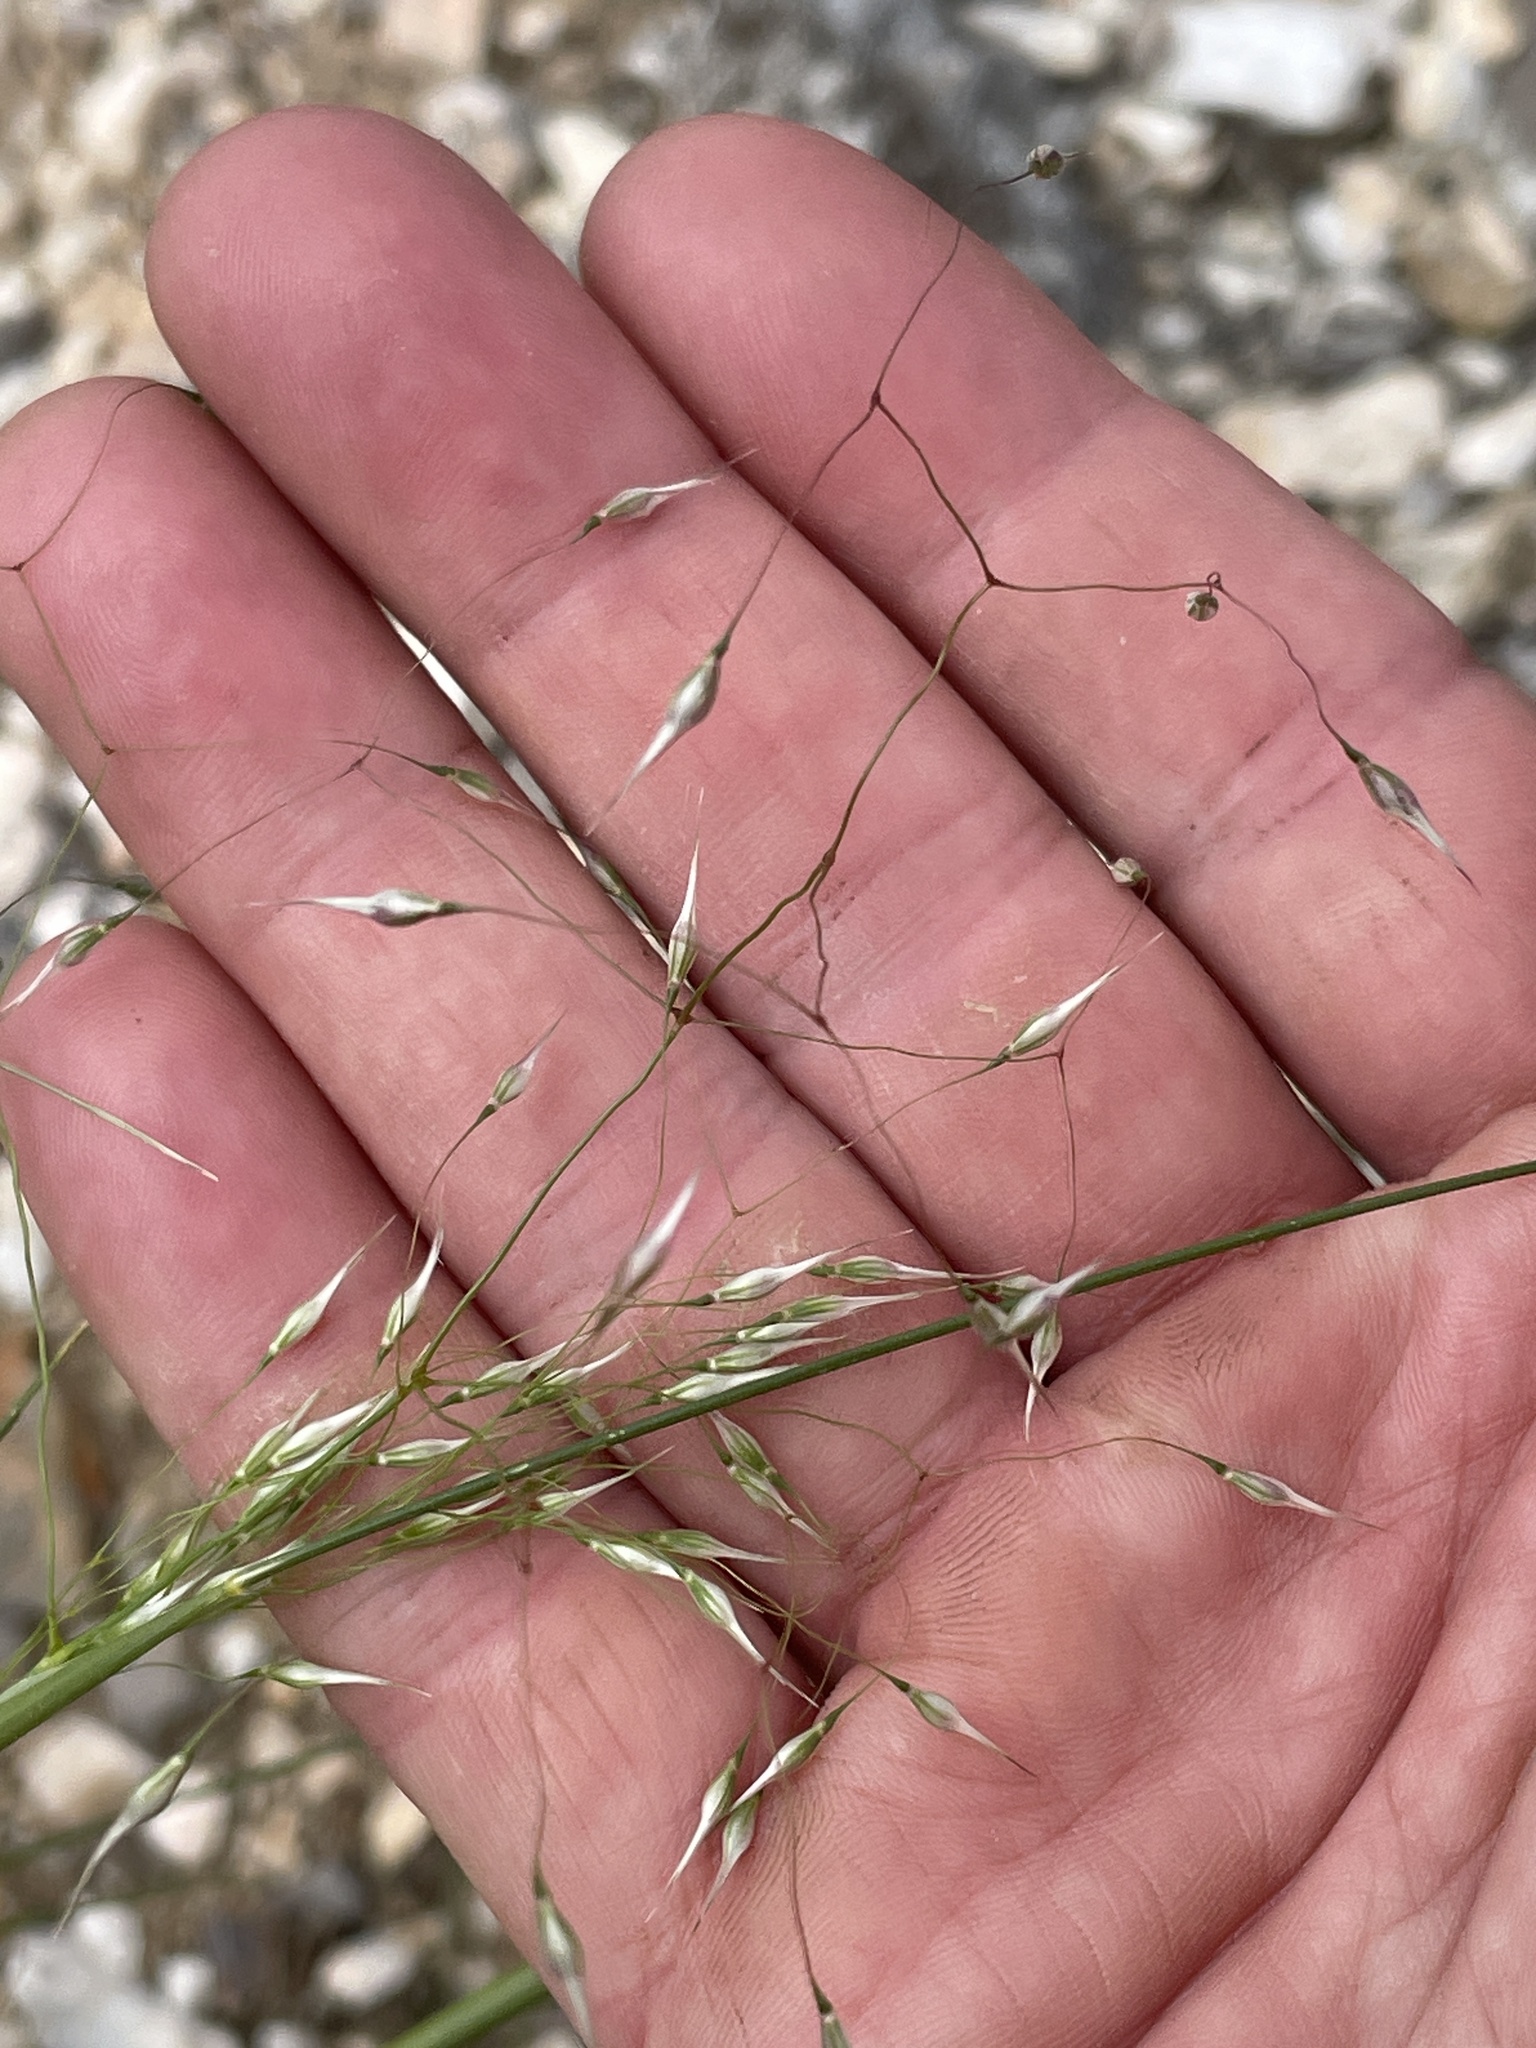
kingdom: Plantae
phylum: Tracheophyta
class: Liliopsida
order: Poales
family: Poaceae
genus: Eriocoma
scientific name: Eriocoma hymenoides
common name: Indian mountain ricegrass
